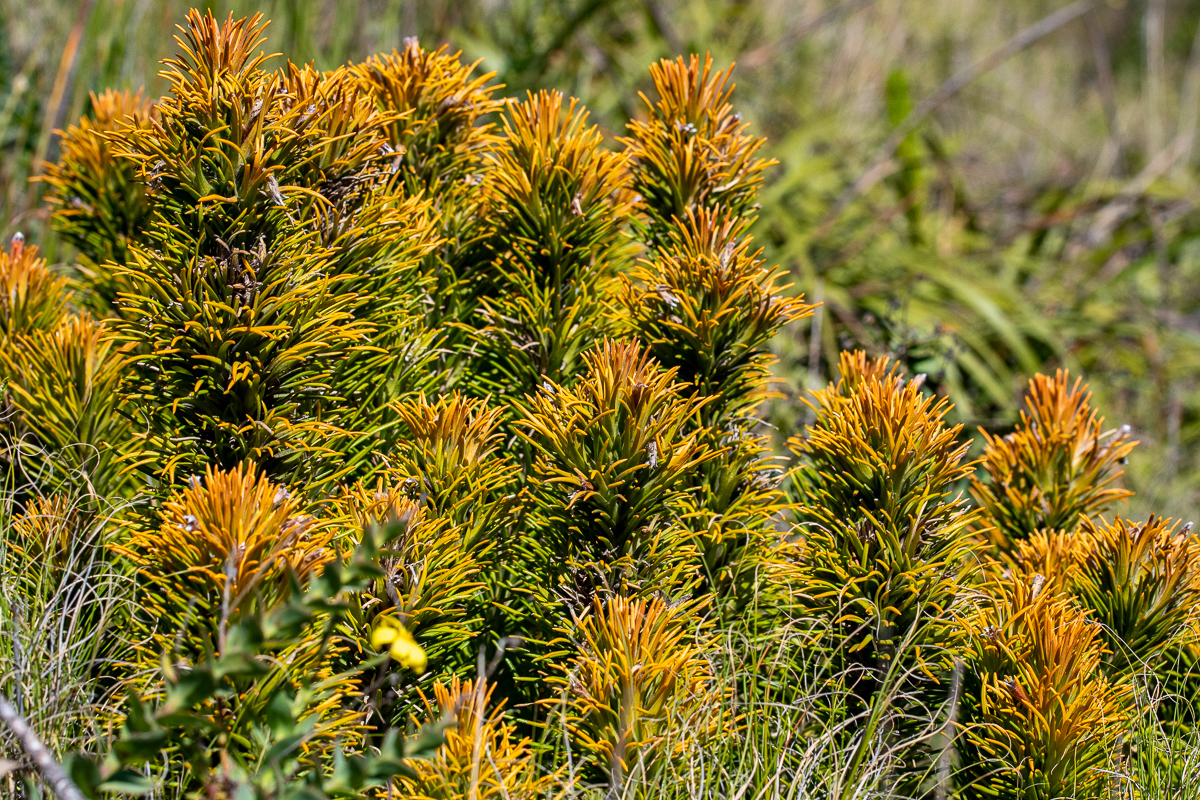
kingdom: Plantae
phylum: Tracheophyta
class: Magnoliopsida
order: Lamiales
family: Stilbaceae
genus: Retzia
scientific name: Retzia capensis
